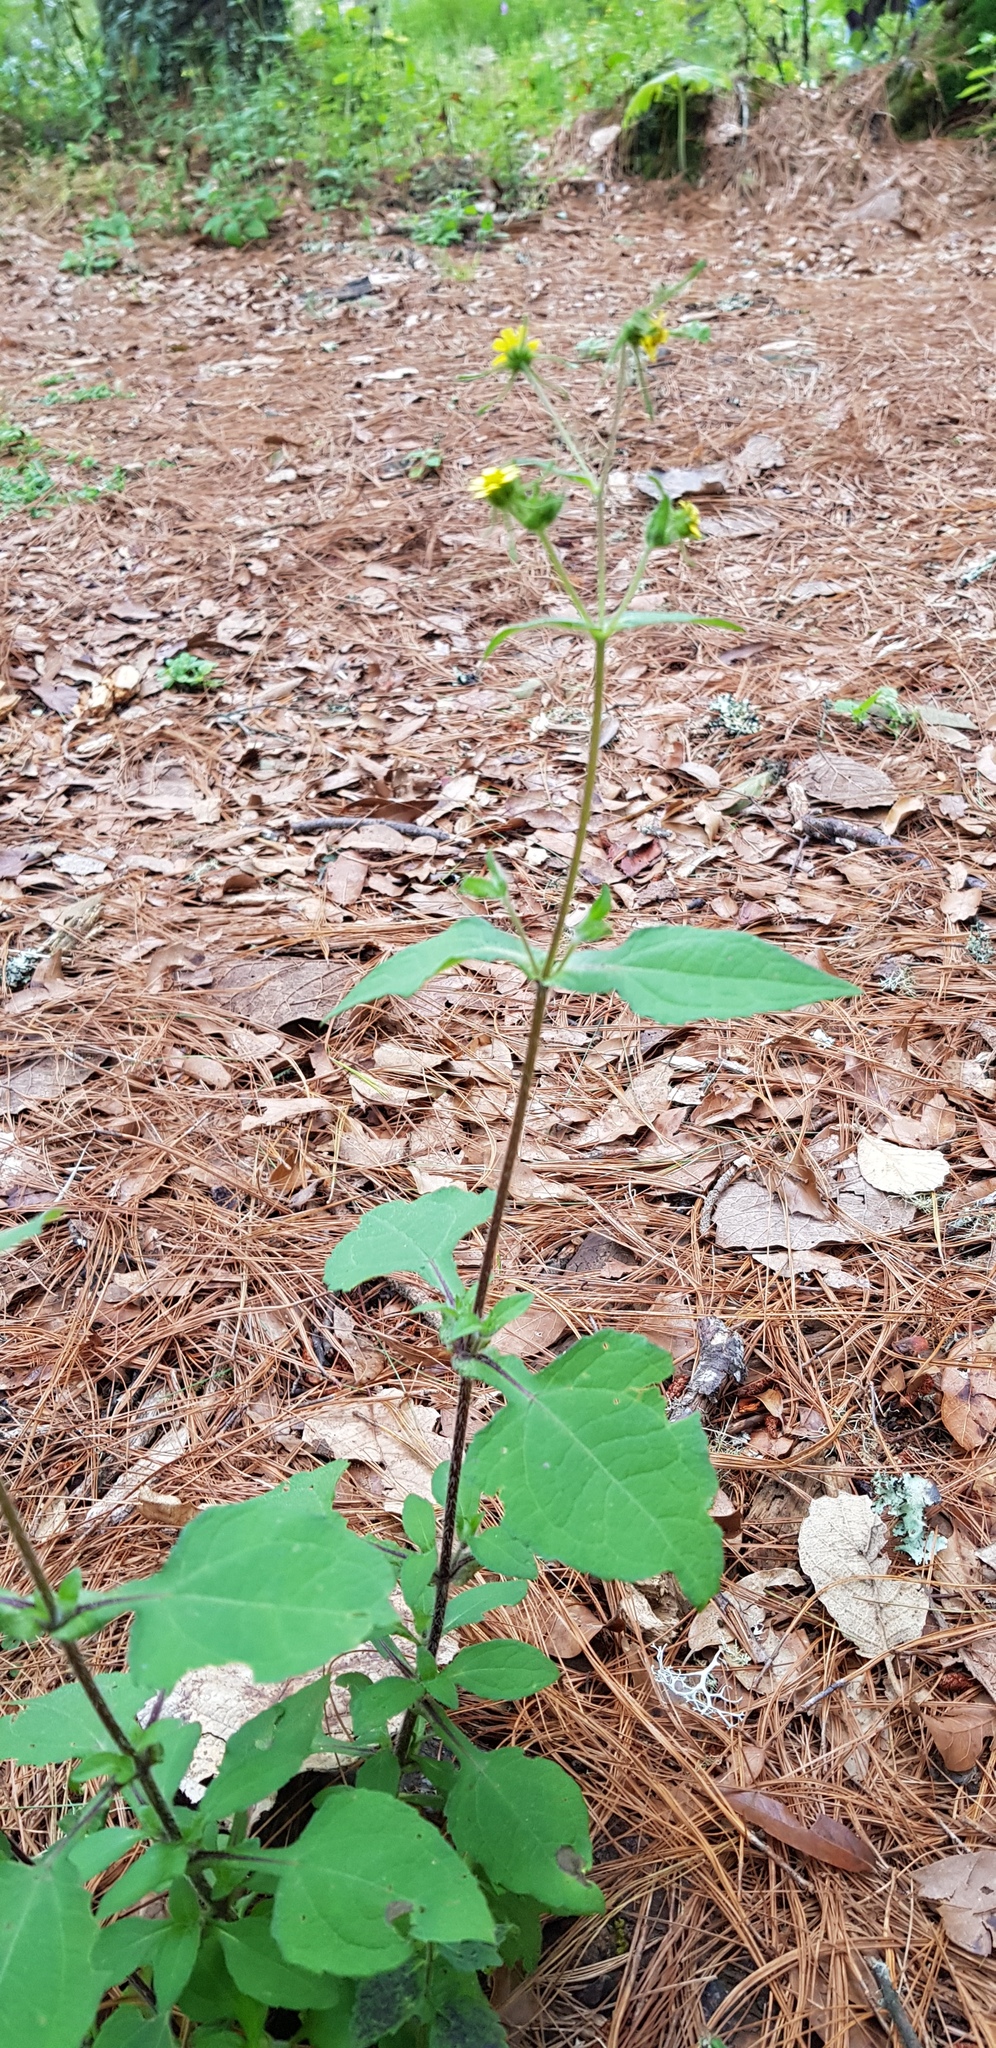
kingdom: Plantae
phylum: Tracheophyta
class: Magnoliopsida
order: Asterales
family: Asteraceae
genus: Sigesbeckia
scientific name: Sigesbeckia jorullensis
